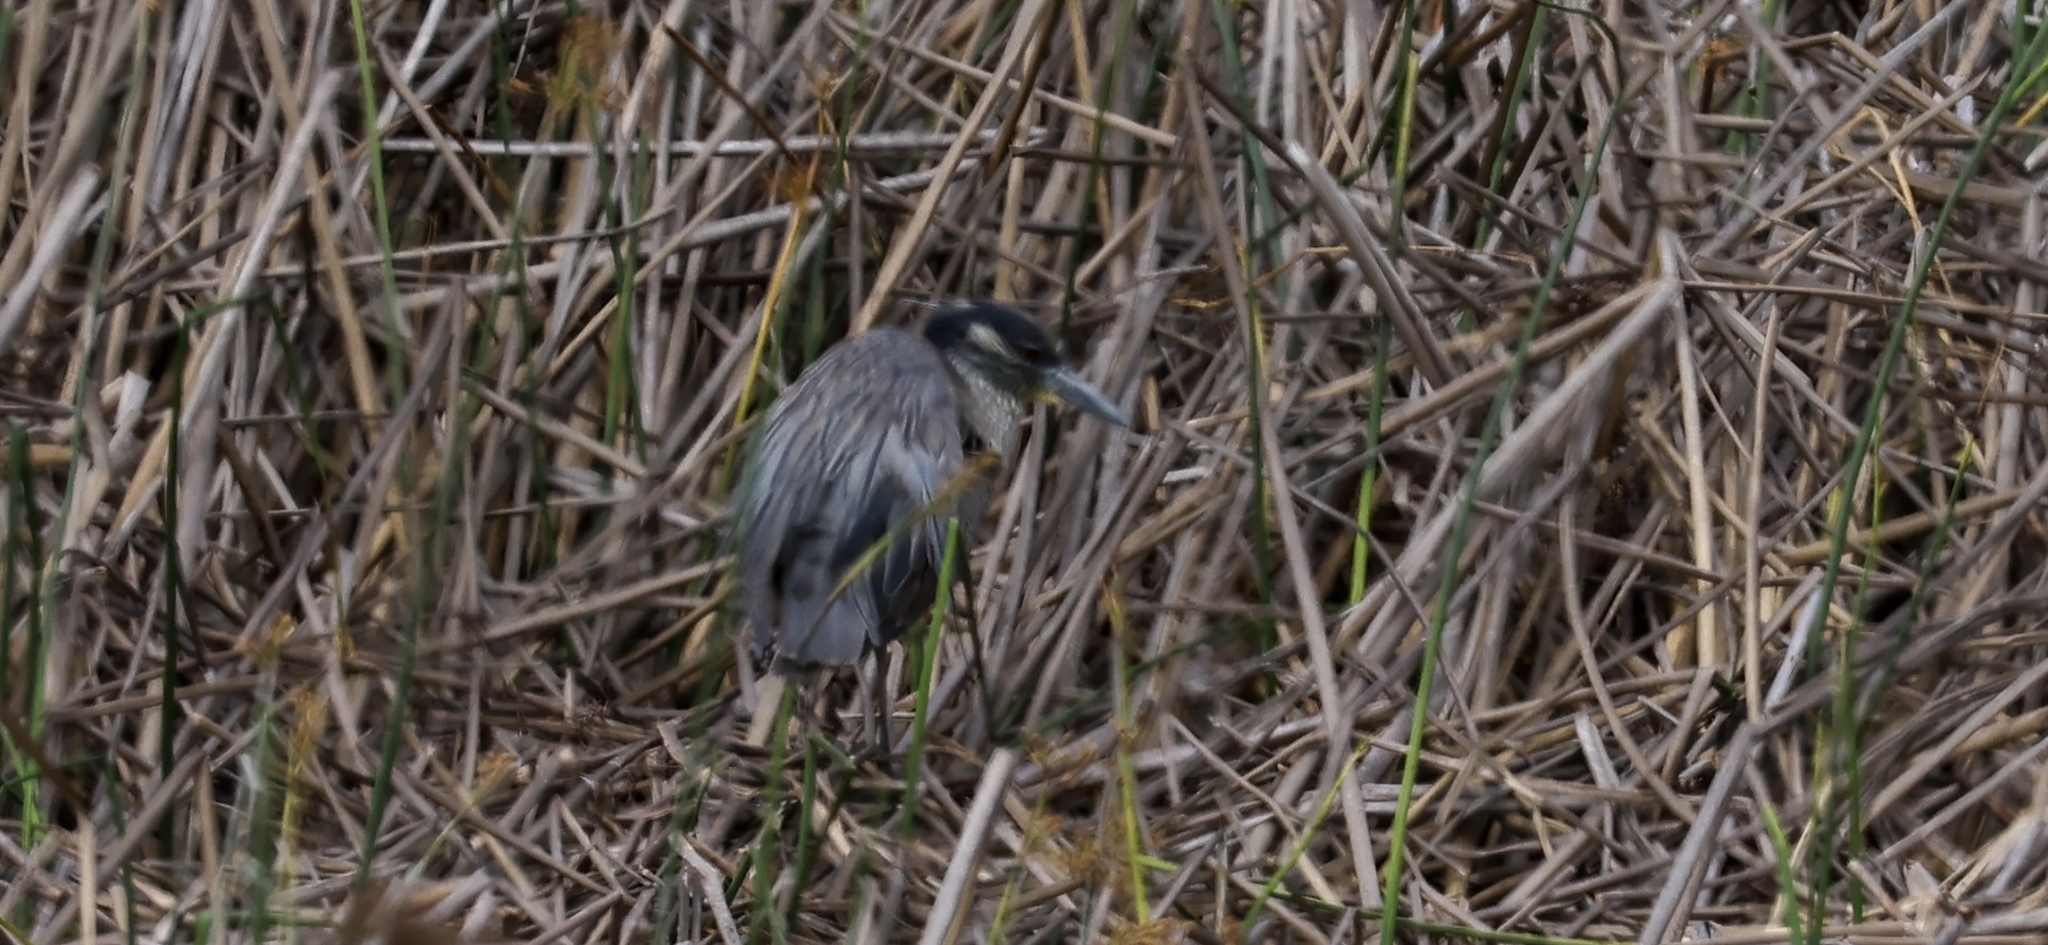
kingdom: Animalia
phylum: Chordata
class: Aves
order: Pelecaniformes
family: Ardeidae
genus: Nyctanassa
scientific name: Nyctanassa violacea
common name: Yellow-crowned night heron
